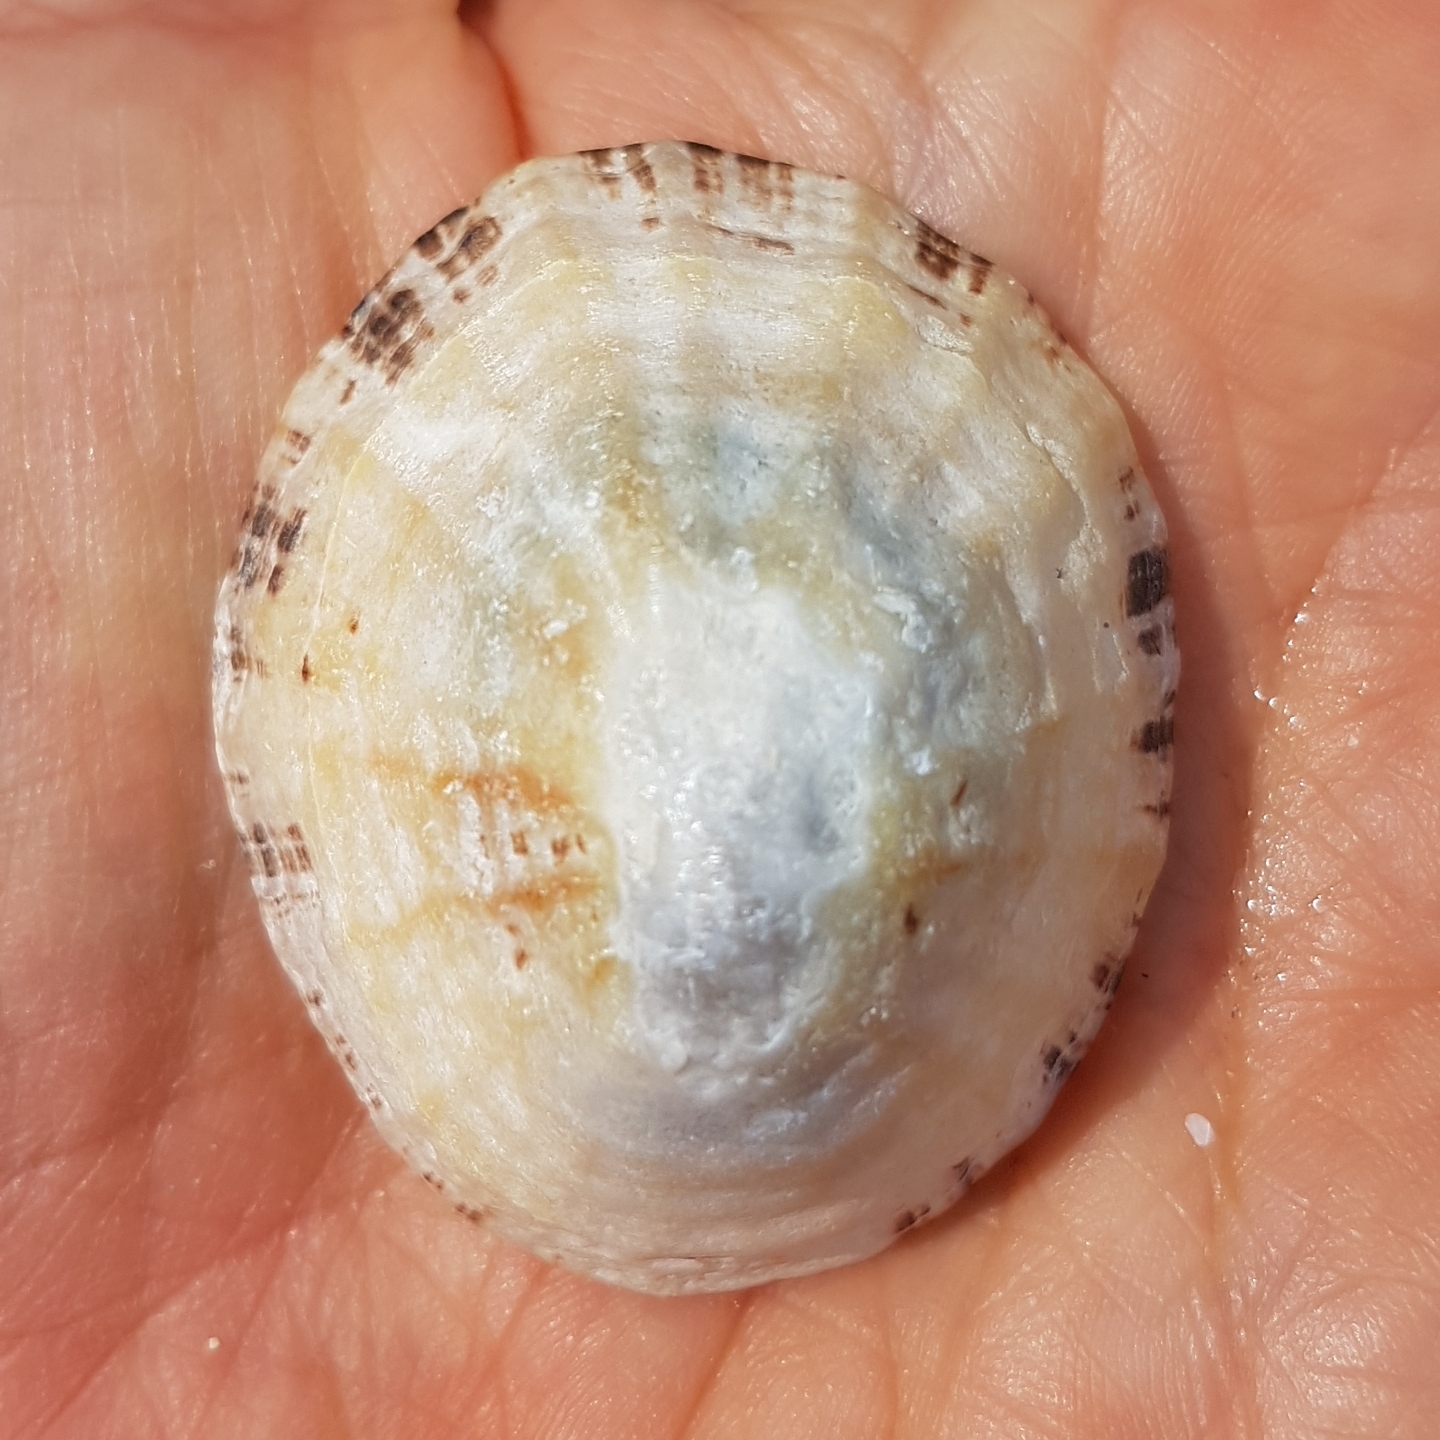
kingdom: Animalia
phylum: Mollusca
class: Gastropoda
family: Patellidae
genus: Patella
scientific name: Patella vulgata
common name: Common limpet
